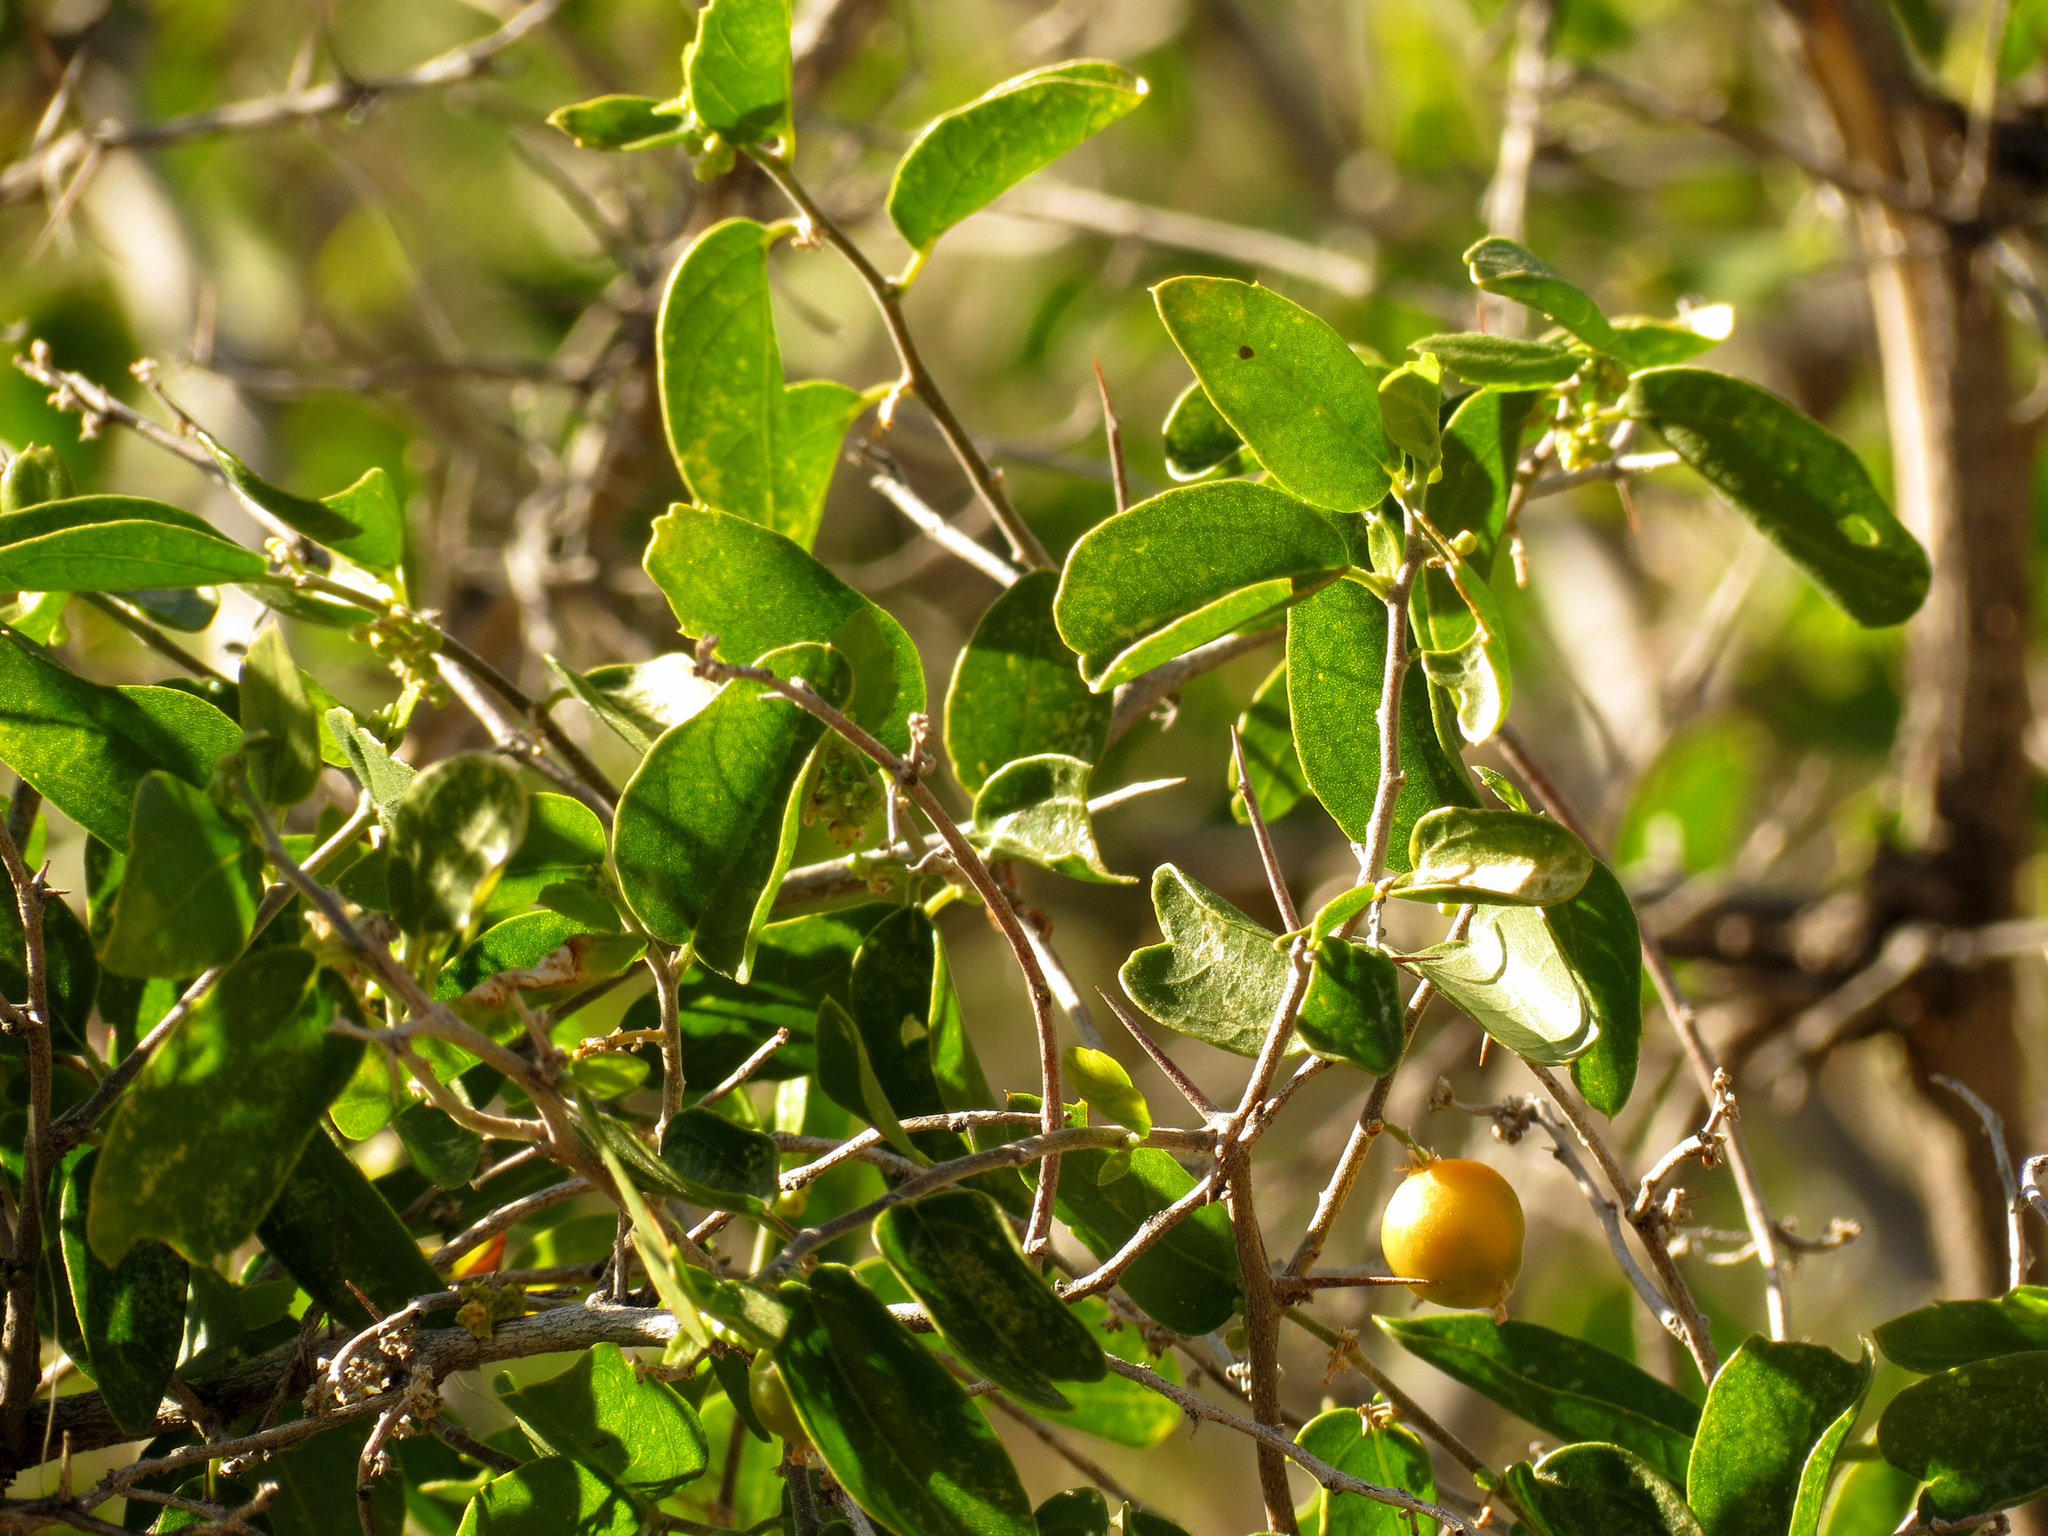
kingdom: Plantae
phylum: Tracheophyta
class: Magnoliopsida
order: Rosales
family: Cannabaceae
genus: Celtis
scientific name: Celtis pallida
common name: Desert hackberry
